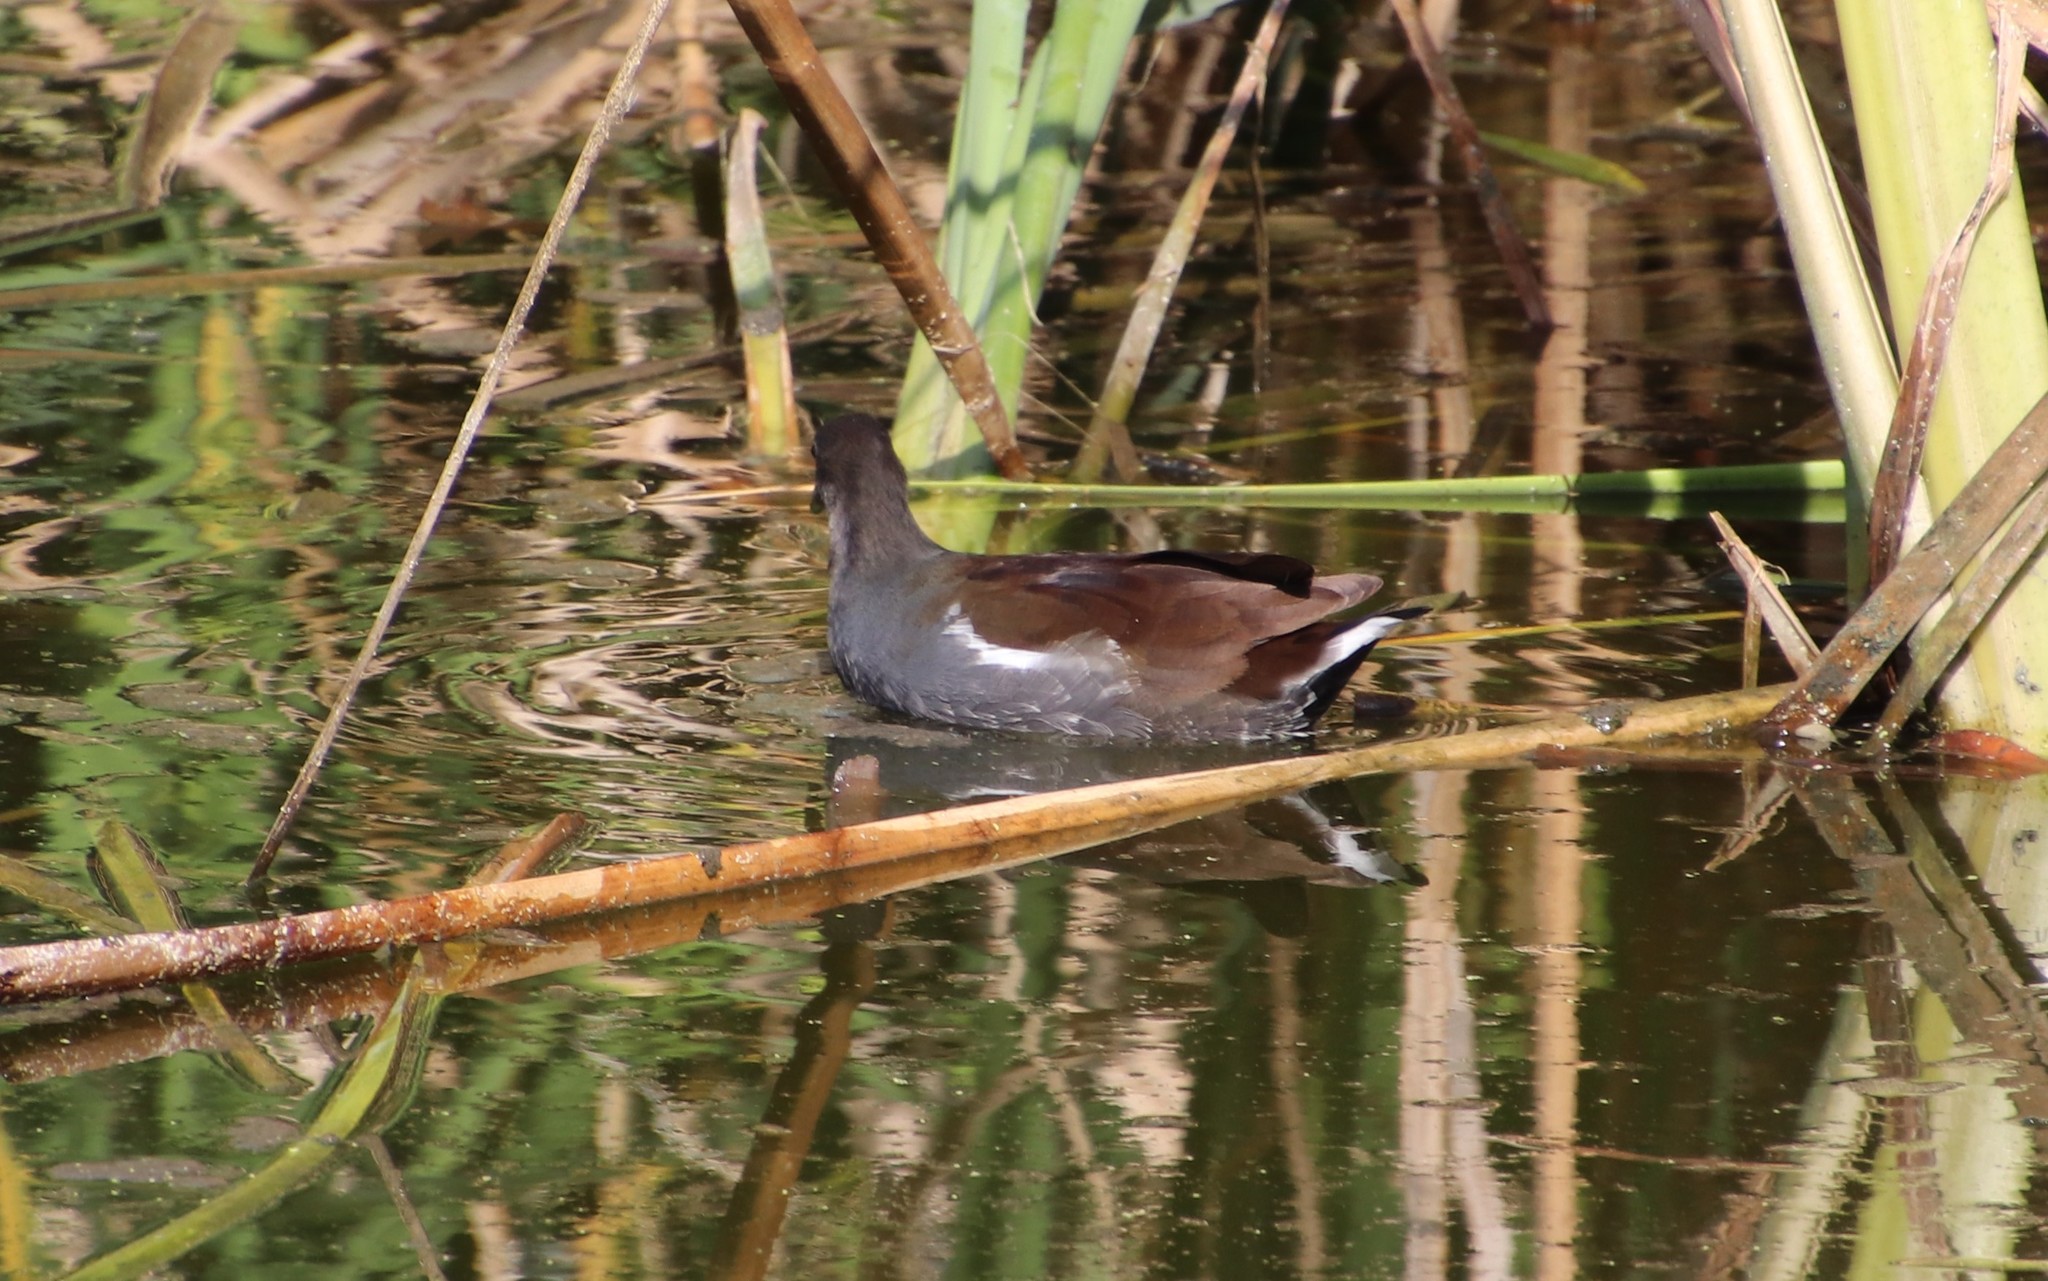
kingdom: Animalia
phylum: Chordata
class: Aves
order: Gruiformes
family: Rallidae
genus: Gallinula
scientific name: Gallinula chloropus
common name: Common moorhen
